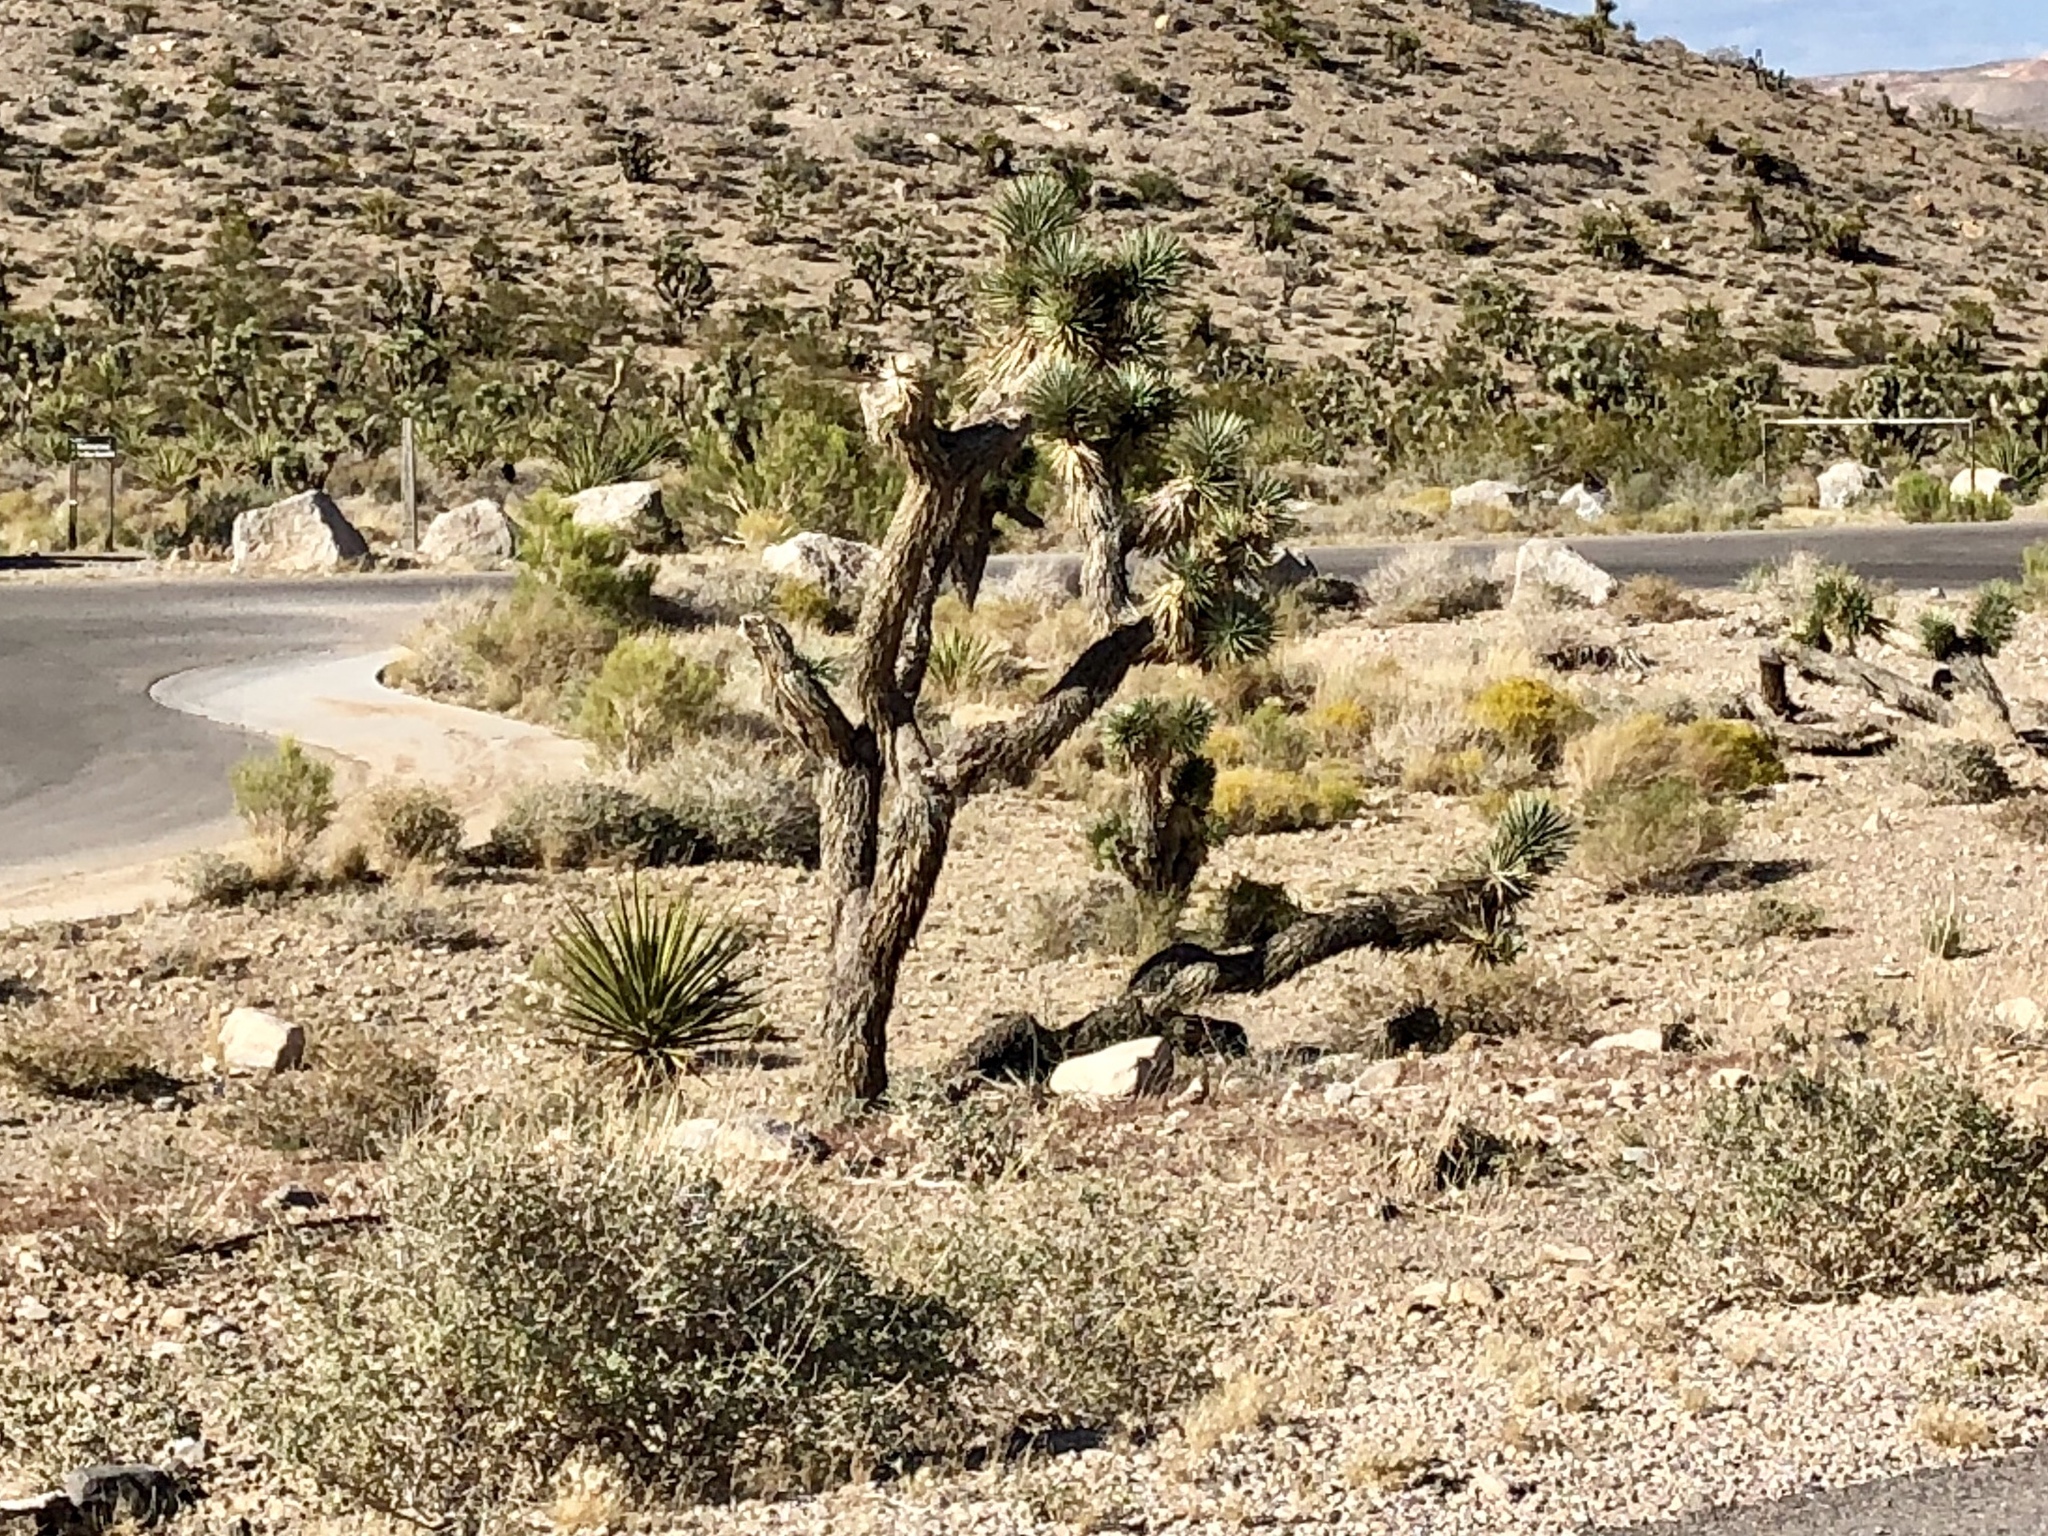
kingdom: Plantae
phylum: Tracheophyta
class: Liliopsida
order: Asparagales
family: Asparagaceae
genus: Yucca
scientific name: Yucca brevifolia
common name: Joshua tree
